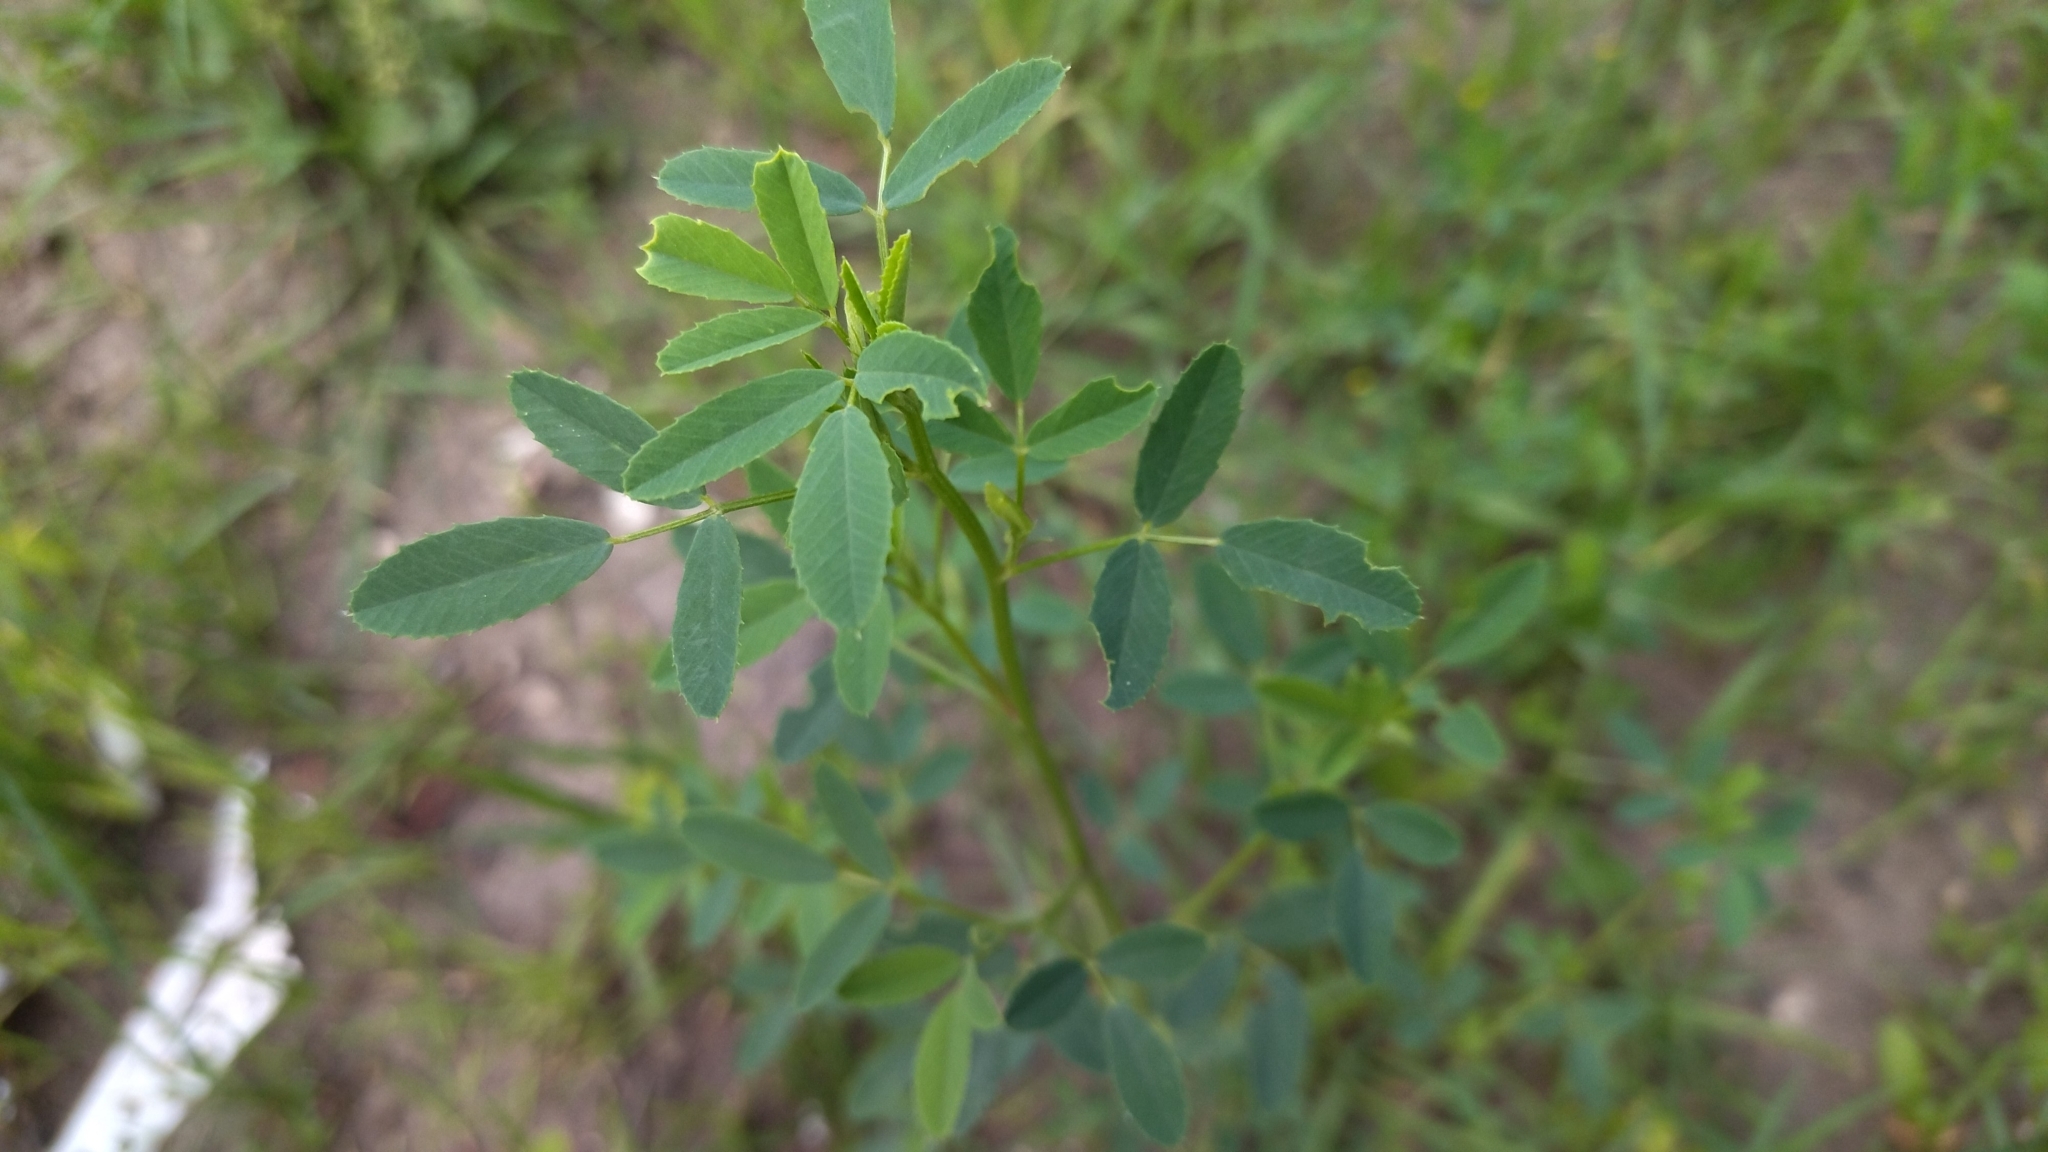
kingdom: Plantae
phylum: Tracheophyta
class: Magnoliopsida
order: Fabales
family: Fabaceae
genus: Melilotus
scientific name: Melilotus
